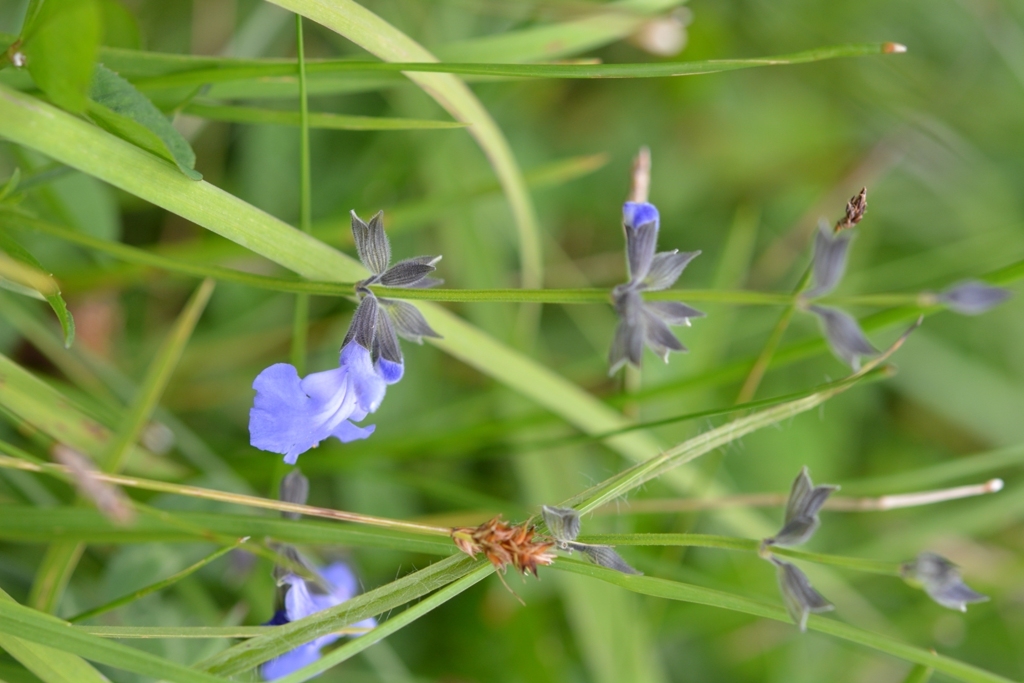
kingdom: Plantae
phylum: Tracheophyta
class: Magnoliopsida
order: Lamiales
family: Lamiaceae
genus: Salvia
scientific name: Salvia reptans
